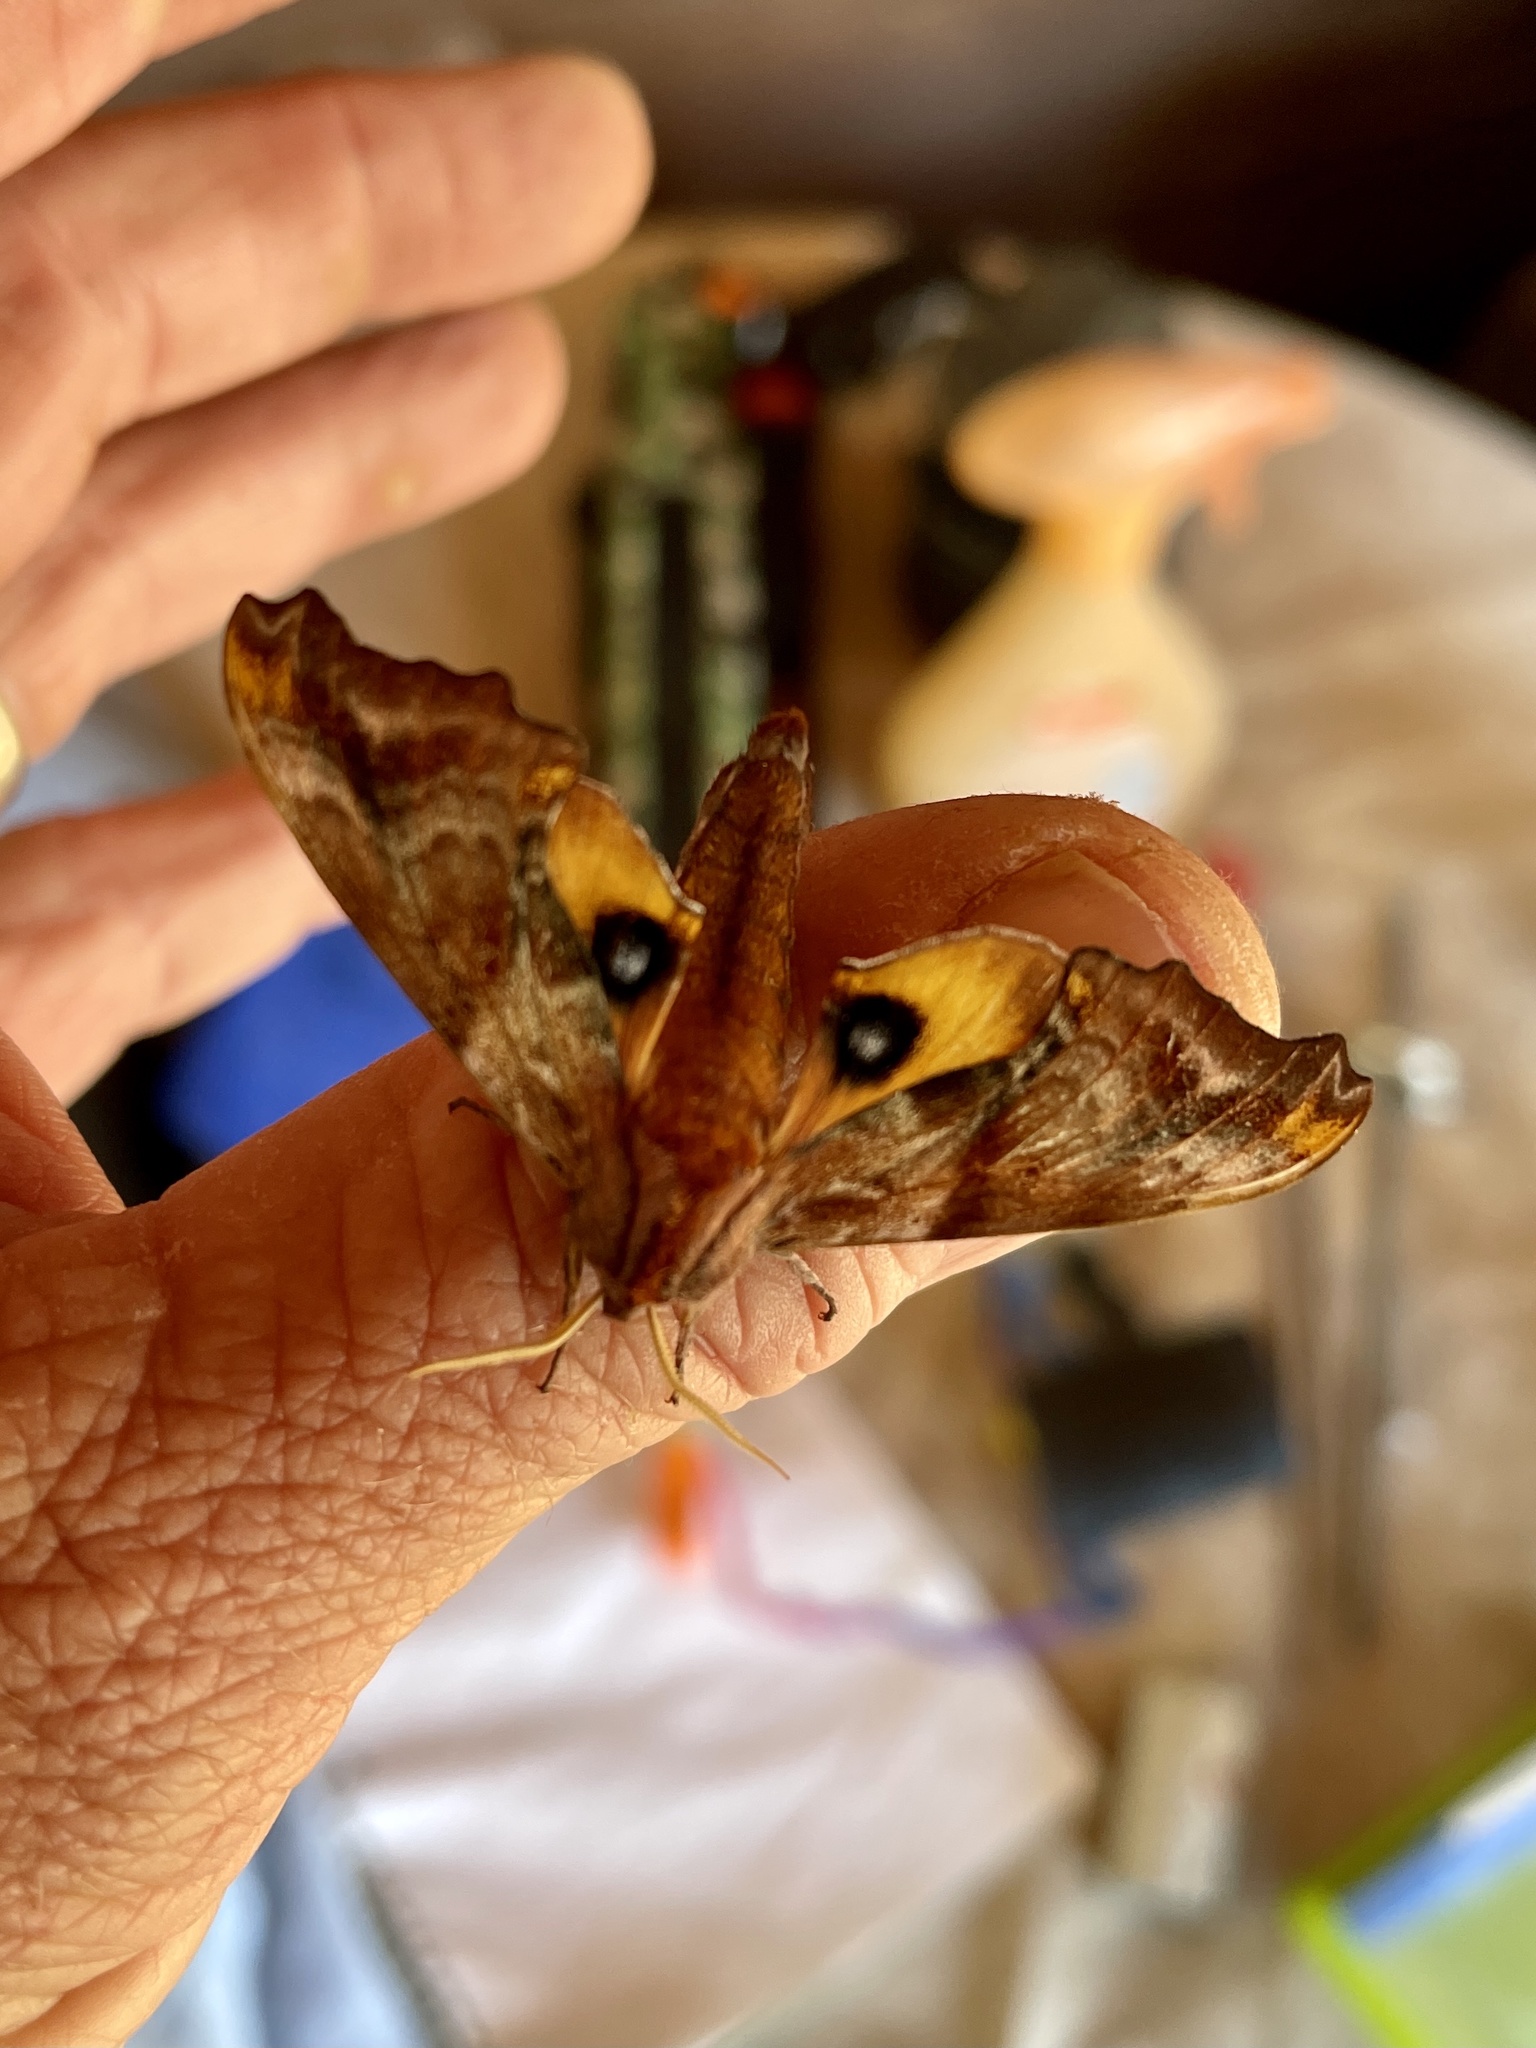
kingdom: Animalia
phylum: Arthropoda
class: Insecta
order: Lepidoptera
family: Sphingidae
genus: Paonias
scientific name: Paonias myops
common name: Small-eyed sphinx
